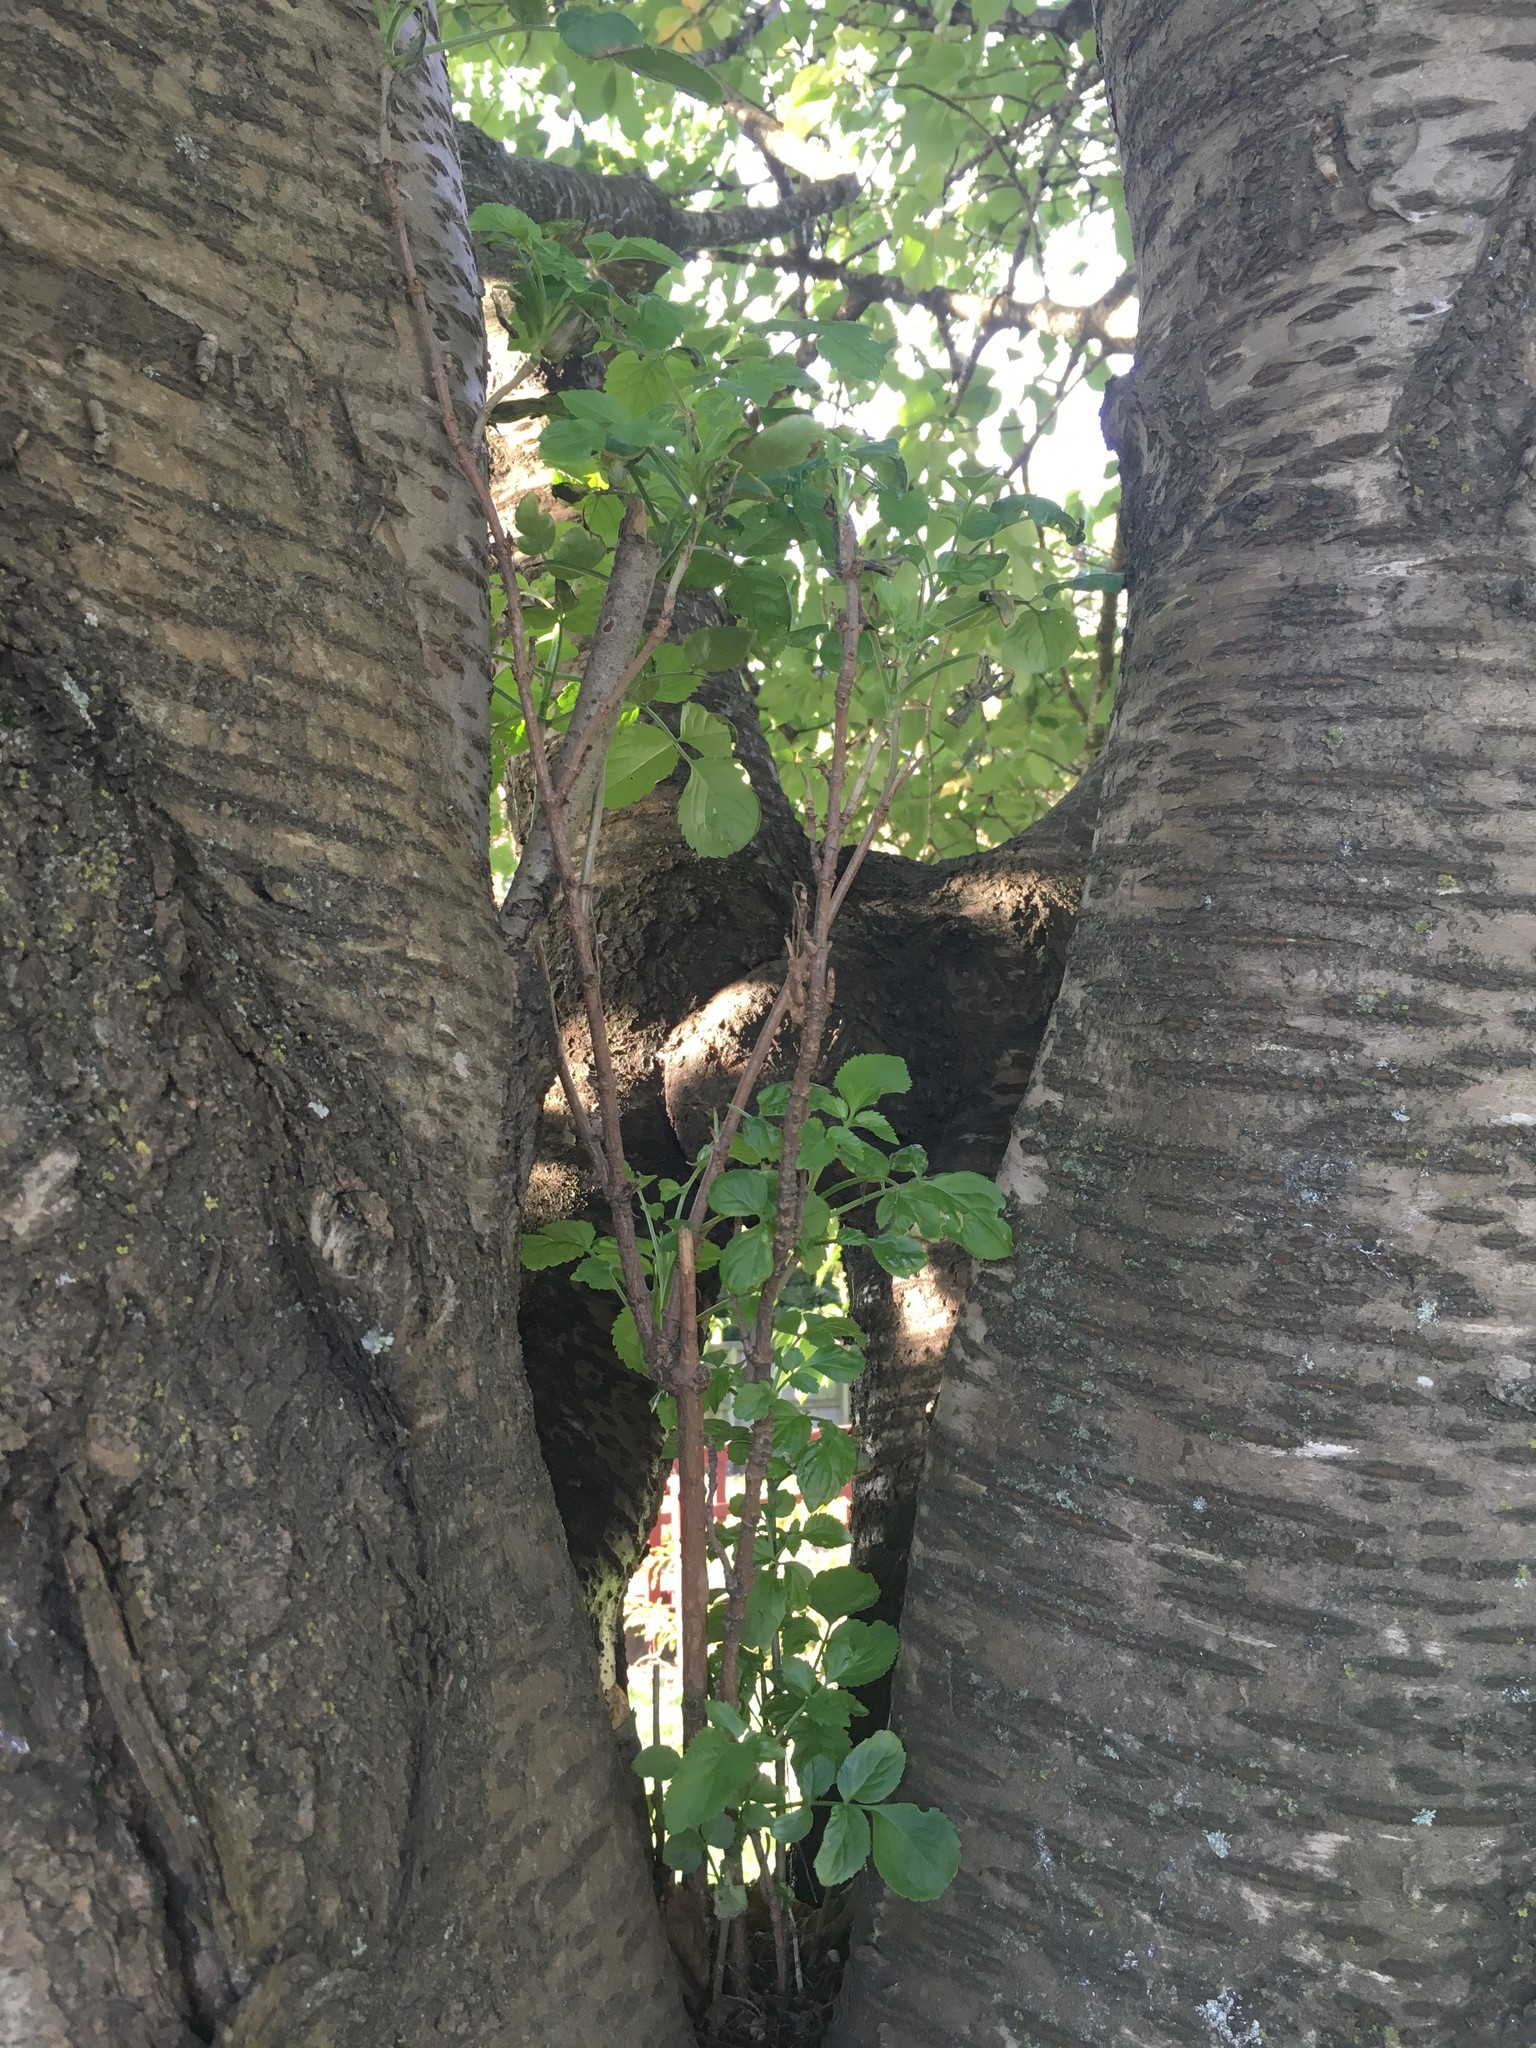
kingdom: Plantae
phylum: Tracheophyta
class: Magnoliopsida
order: Dipsacales
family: Viburnaceae
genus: Sambucus
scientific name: Sambucus nigra
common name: Elder
